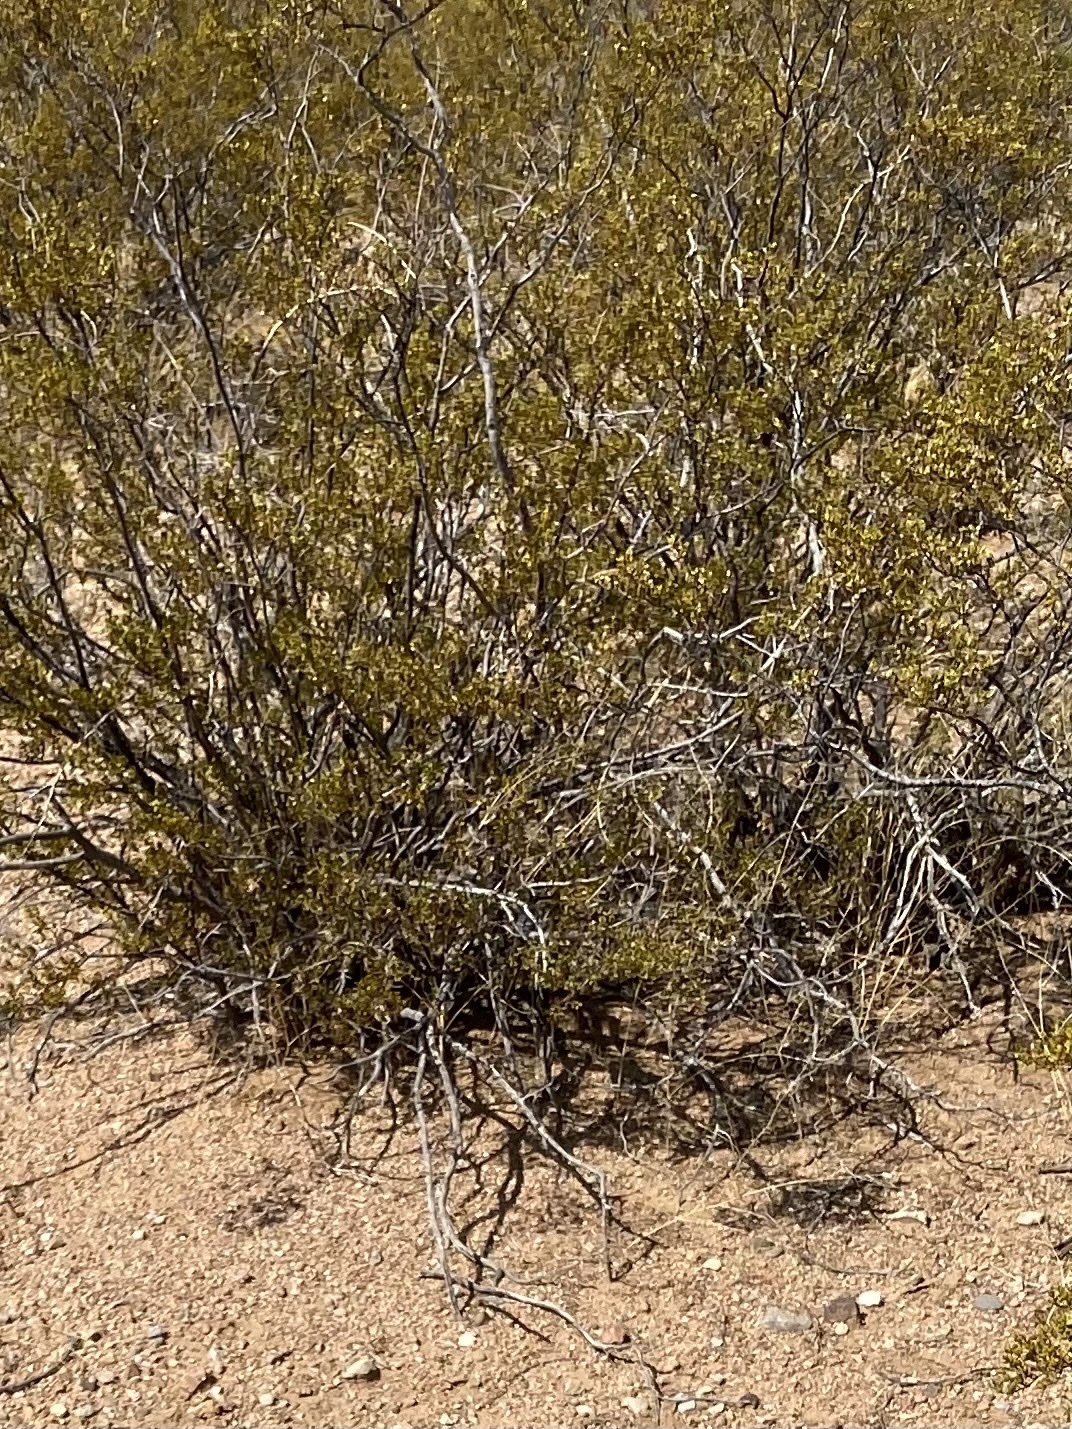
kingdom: Plantae
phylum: Tracheophyta
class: Magnoliopsida
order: Zygophyllales
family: Zygophyllaceae
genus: Larrea
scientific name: Larrea tridentata
